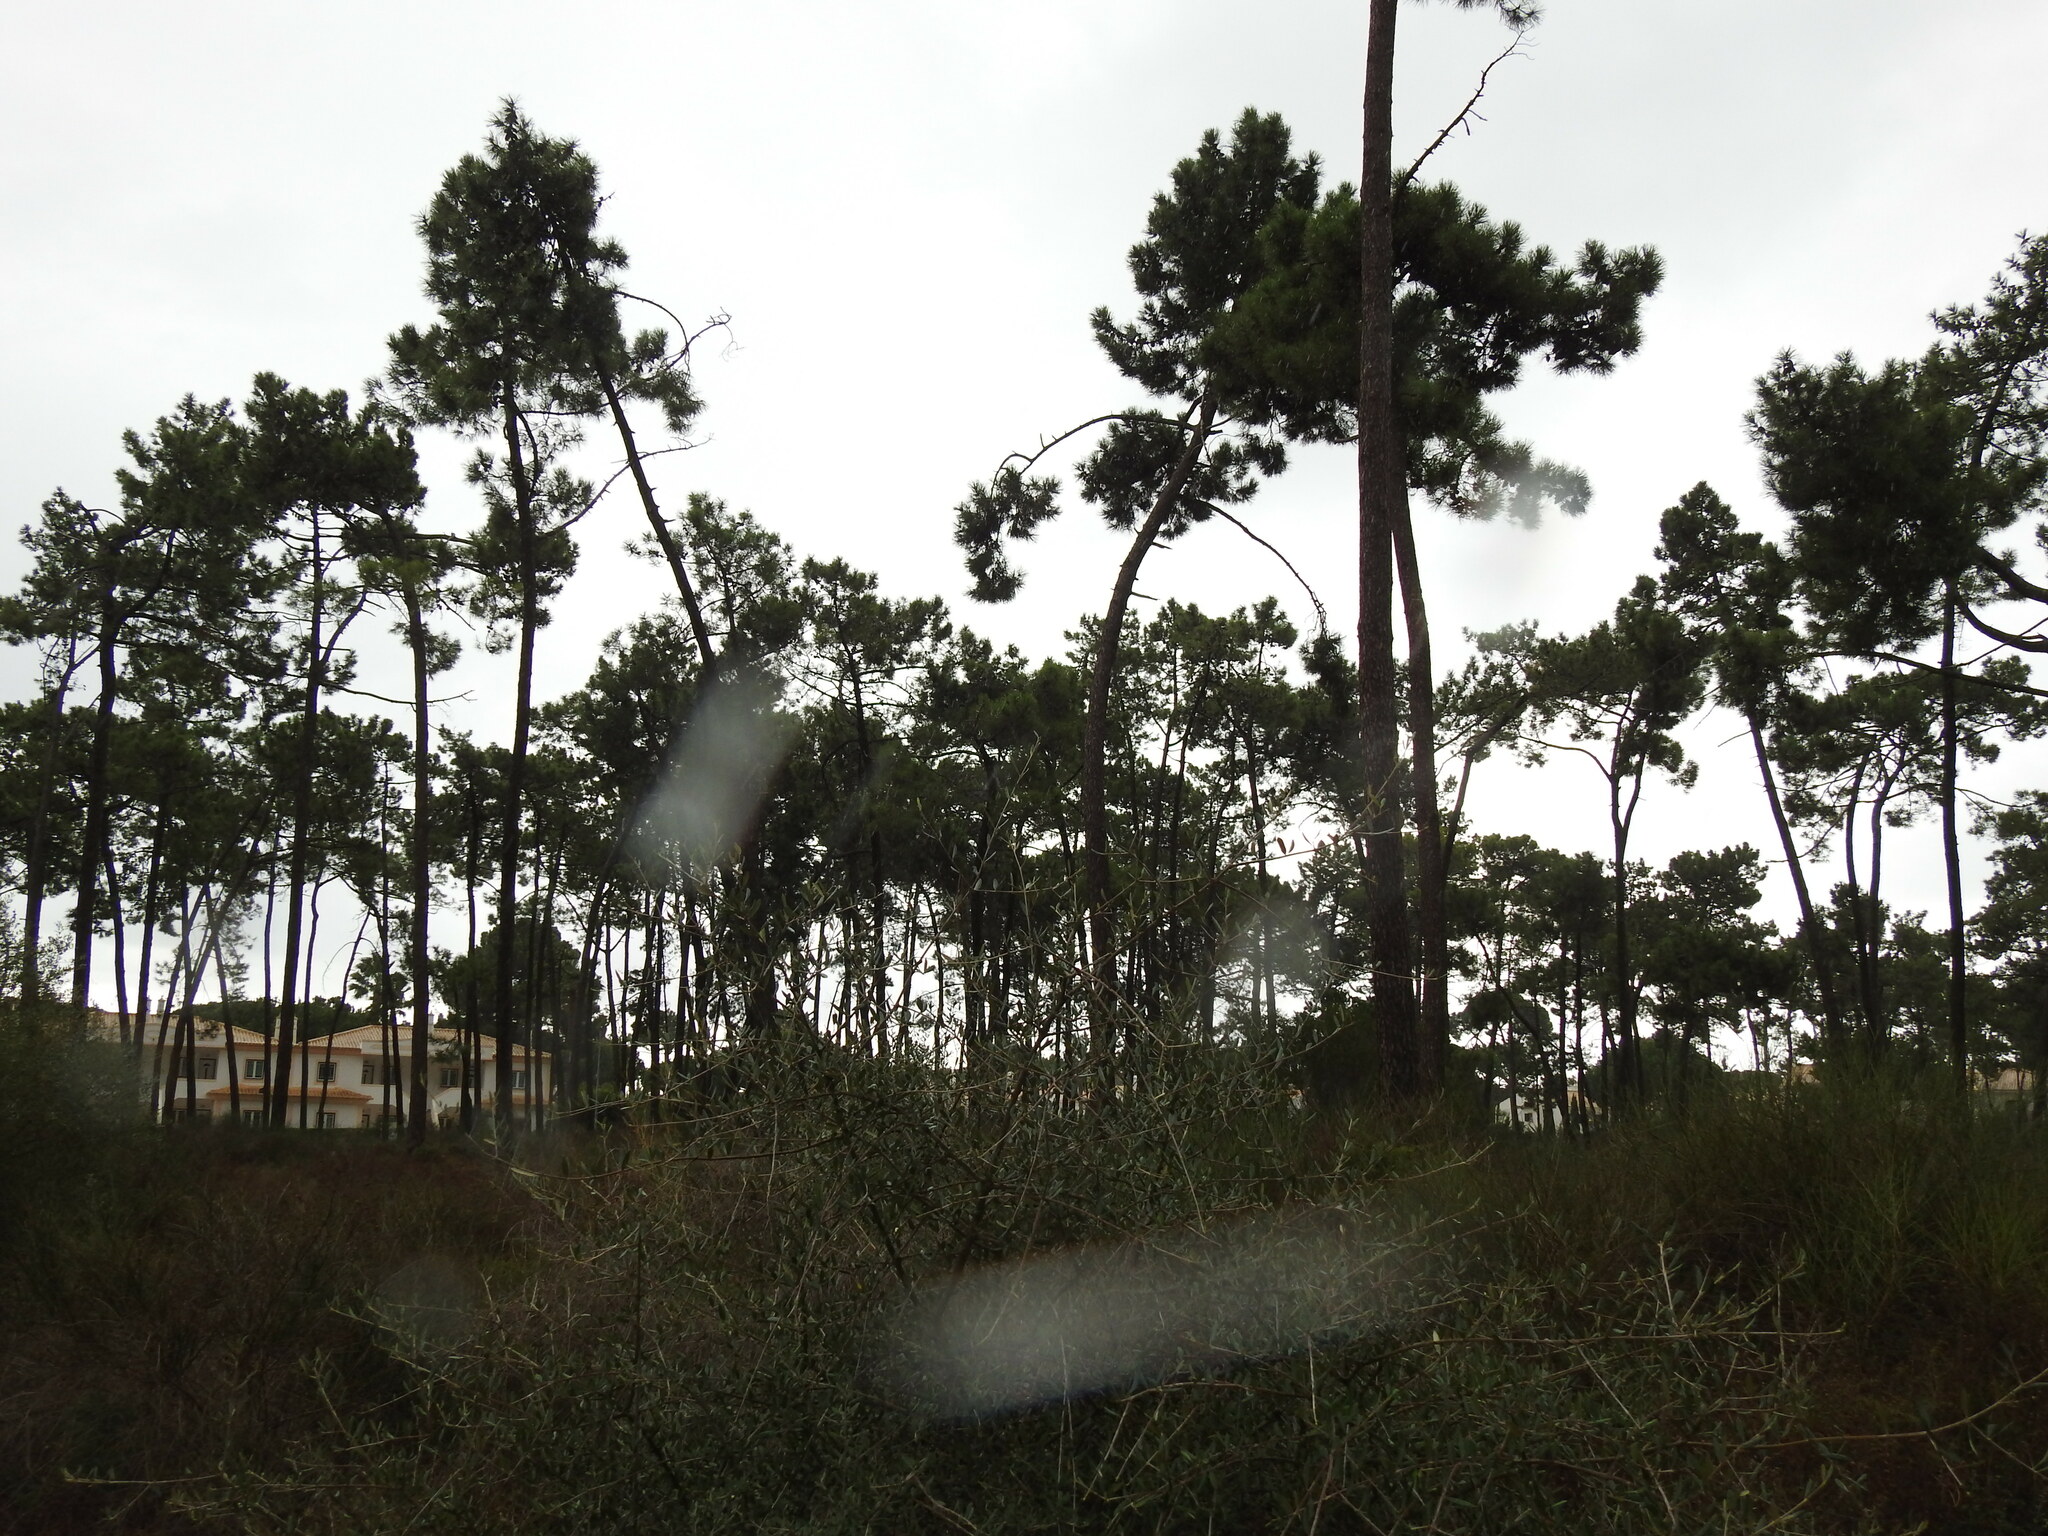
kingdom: Plantae
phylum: Tracheophyta
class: Pinopsida
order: Pinales
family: Pinaceae
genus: Pinus
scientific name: Pinus pinaster
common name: Maritime pine
